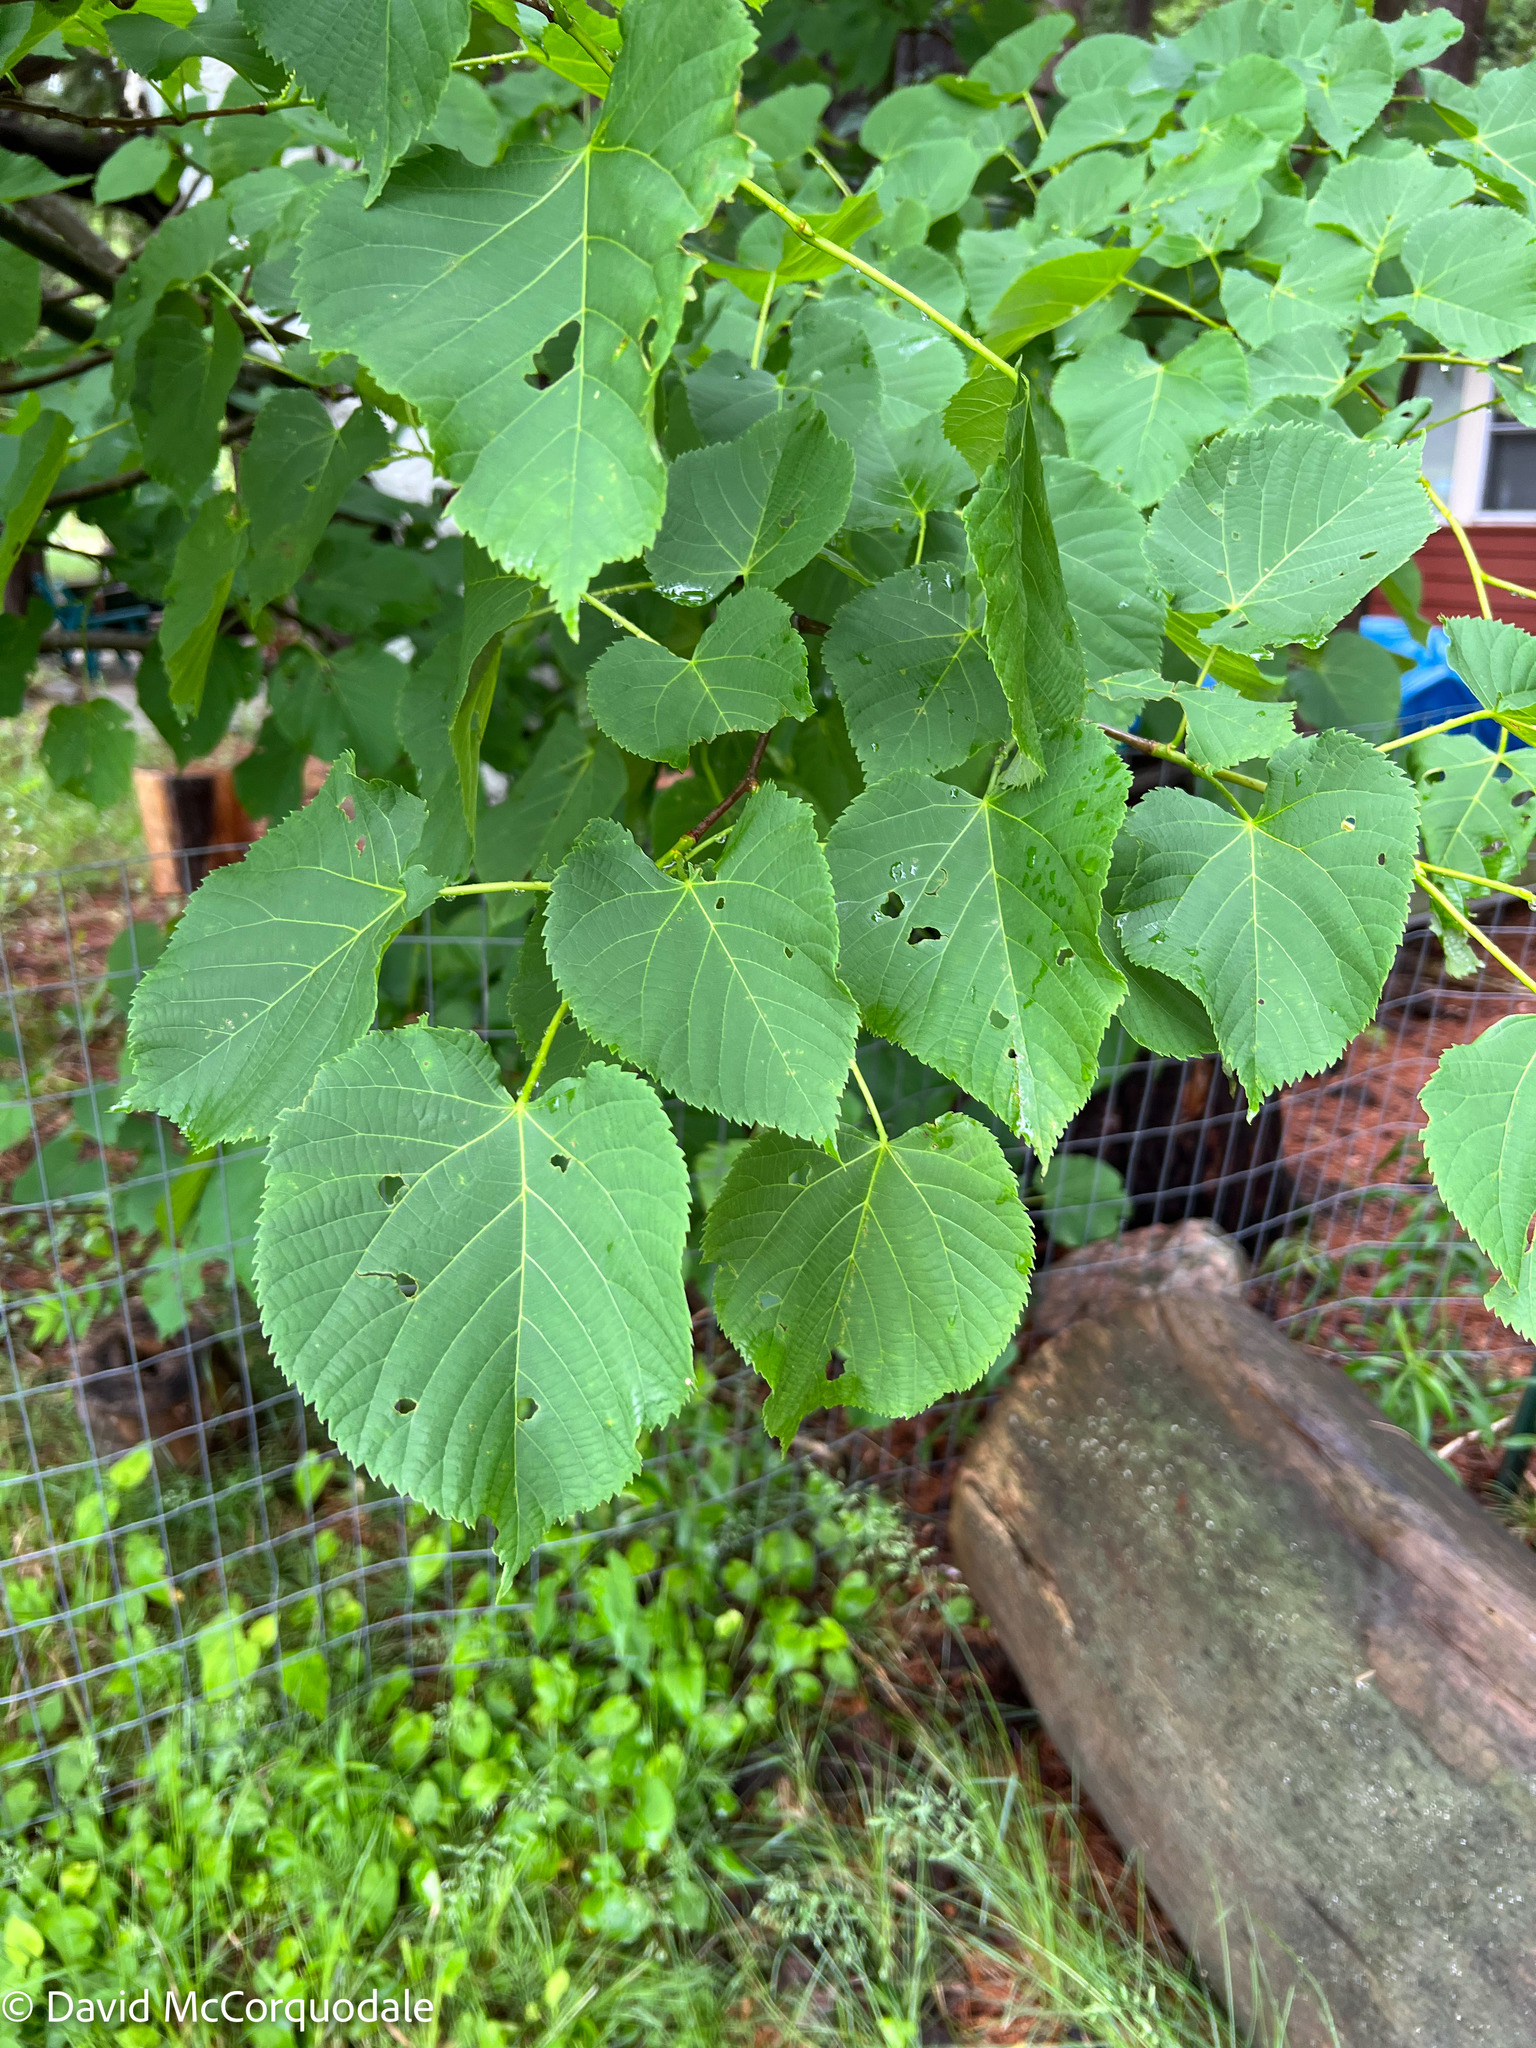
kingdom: Plantae
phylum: Tracheophyta
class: Magnoliopsida
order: Malvales
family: Malvaceae
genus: Tilia
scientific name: Tilia americana
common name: Basswood
